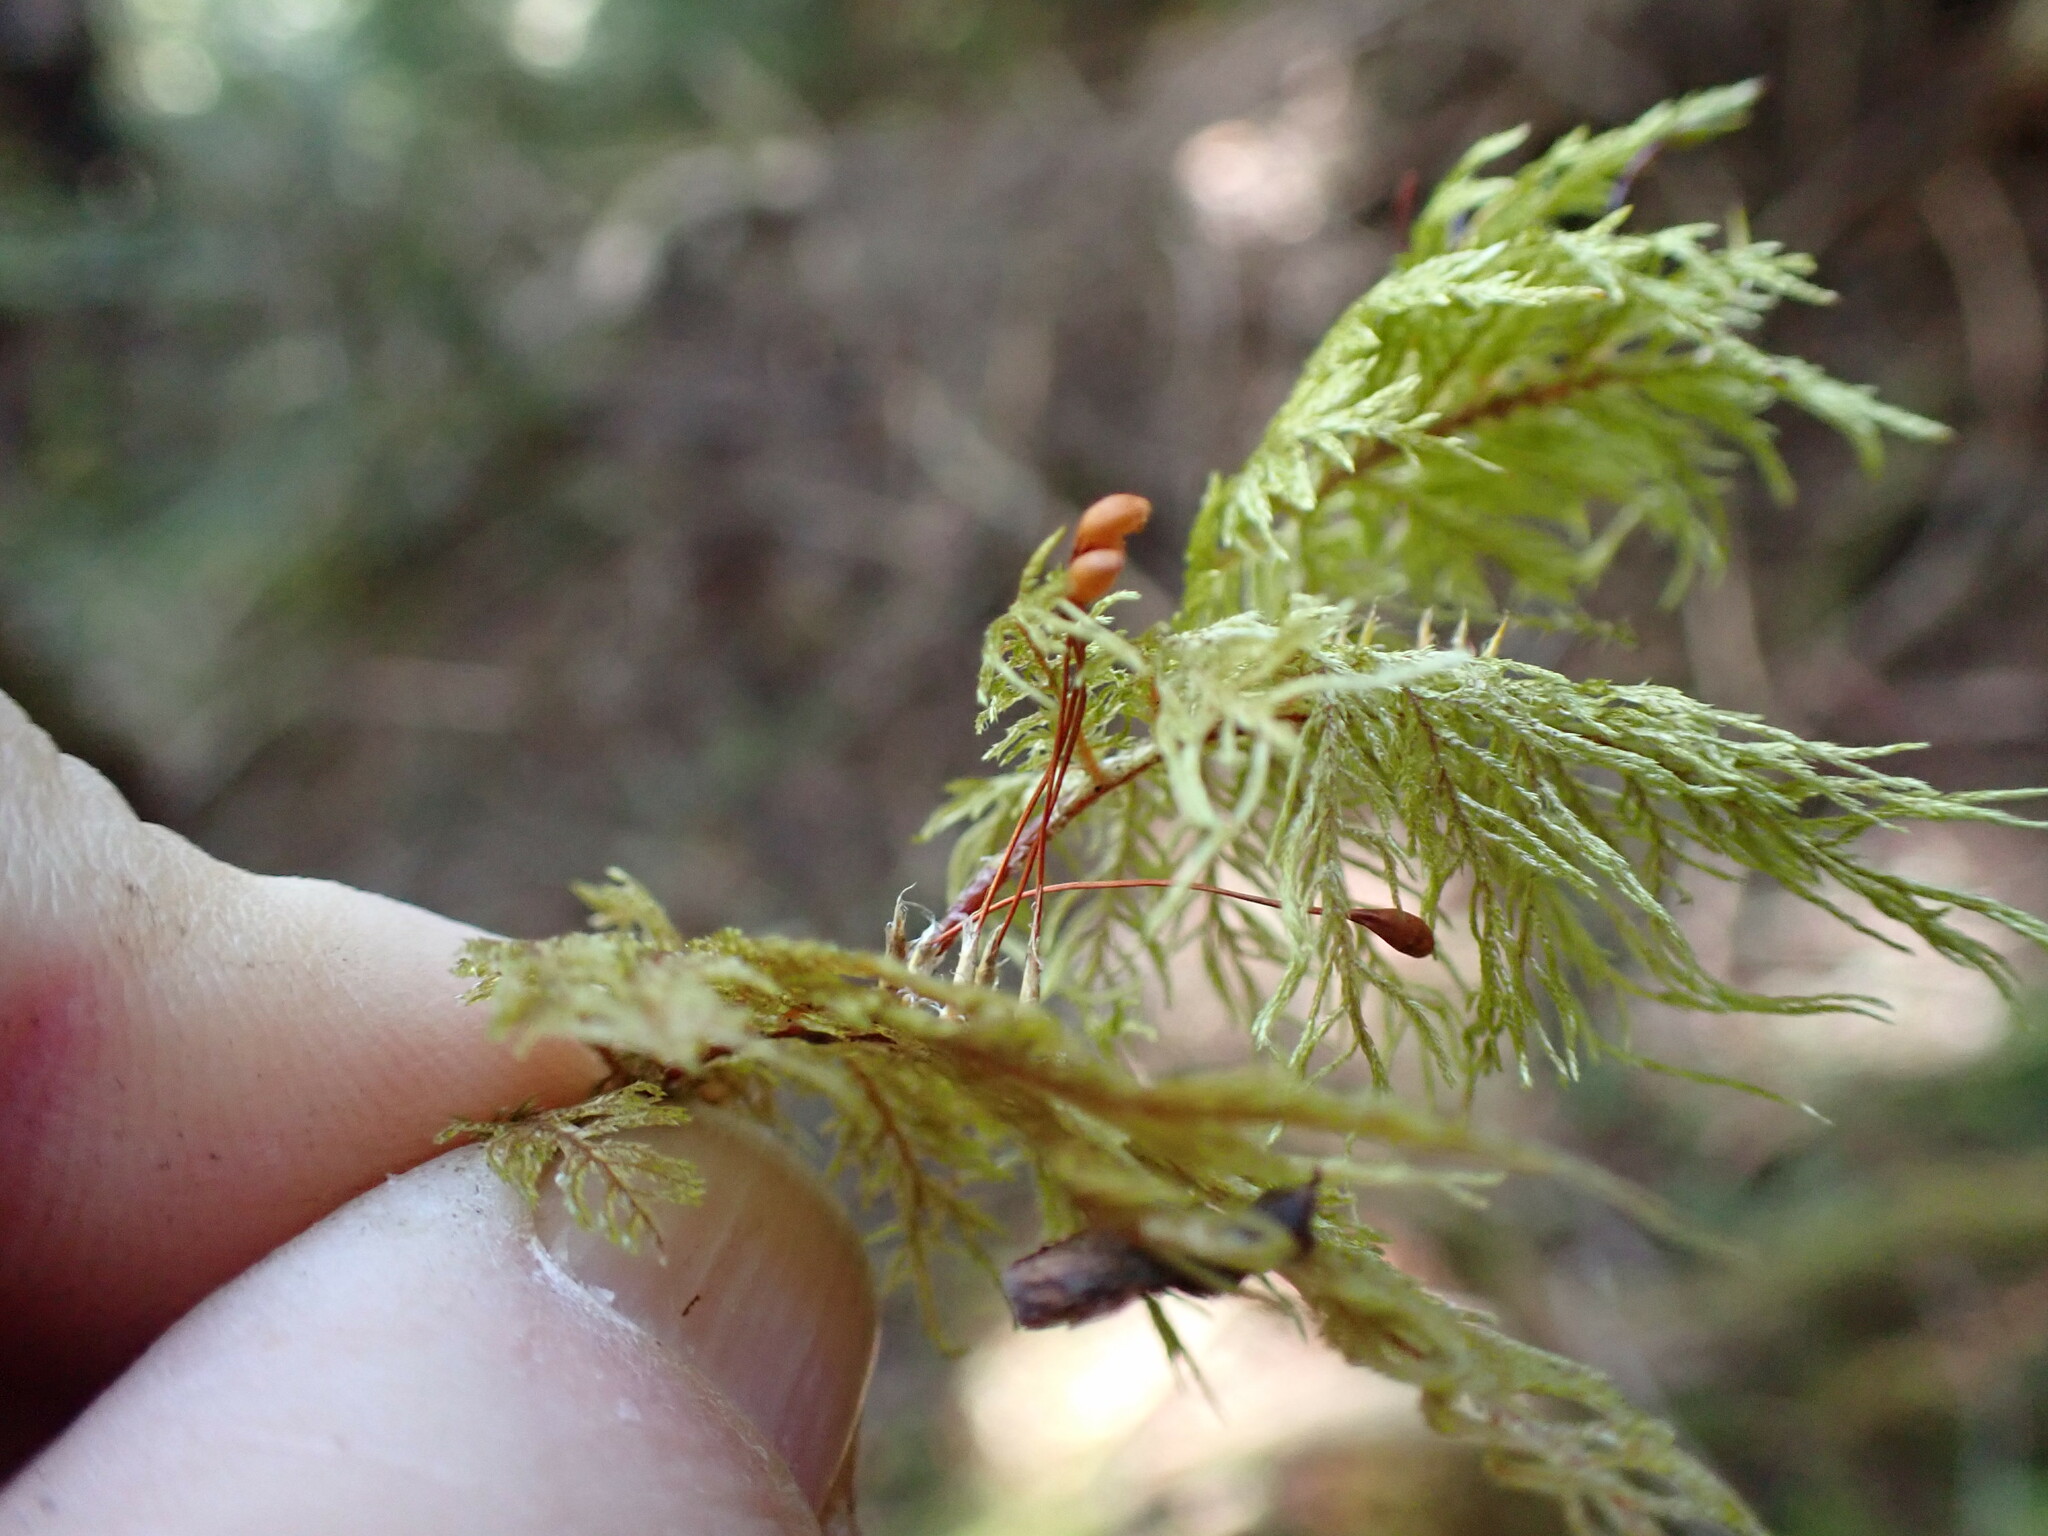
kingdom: Plantae
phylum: Bryophyta
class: Bryopsida
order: Hypnales
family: Hylocomiaceae
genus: Hylocomium
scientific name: Hylocomium splendens
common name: Stairstep moss
